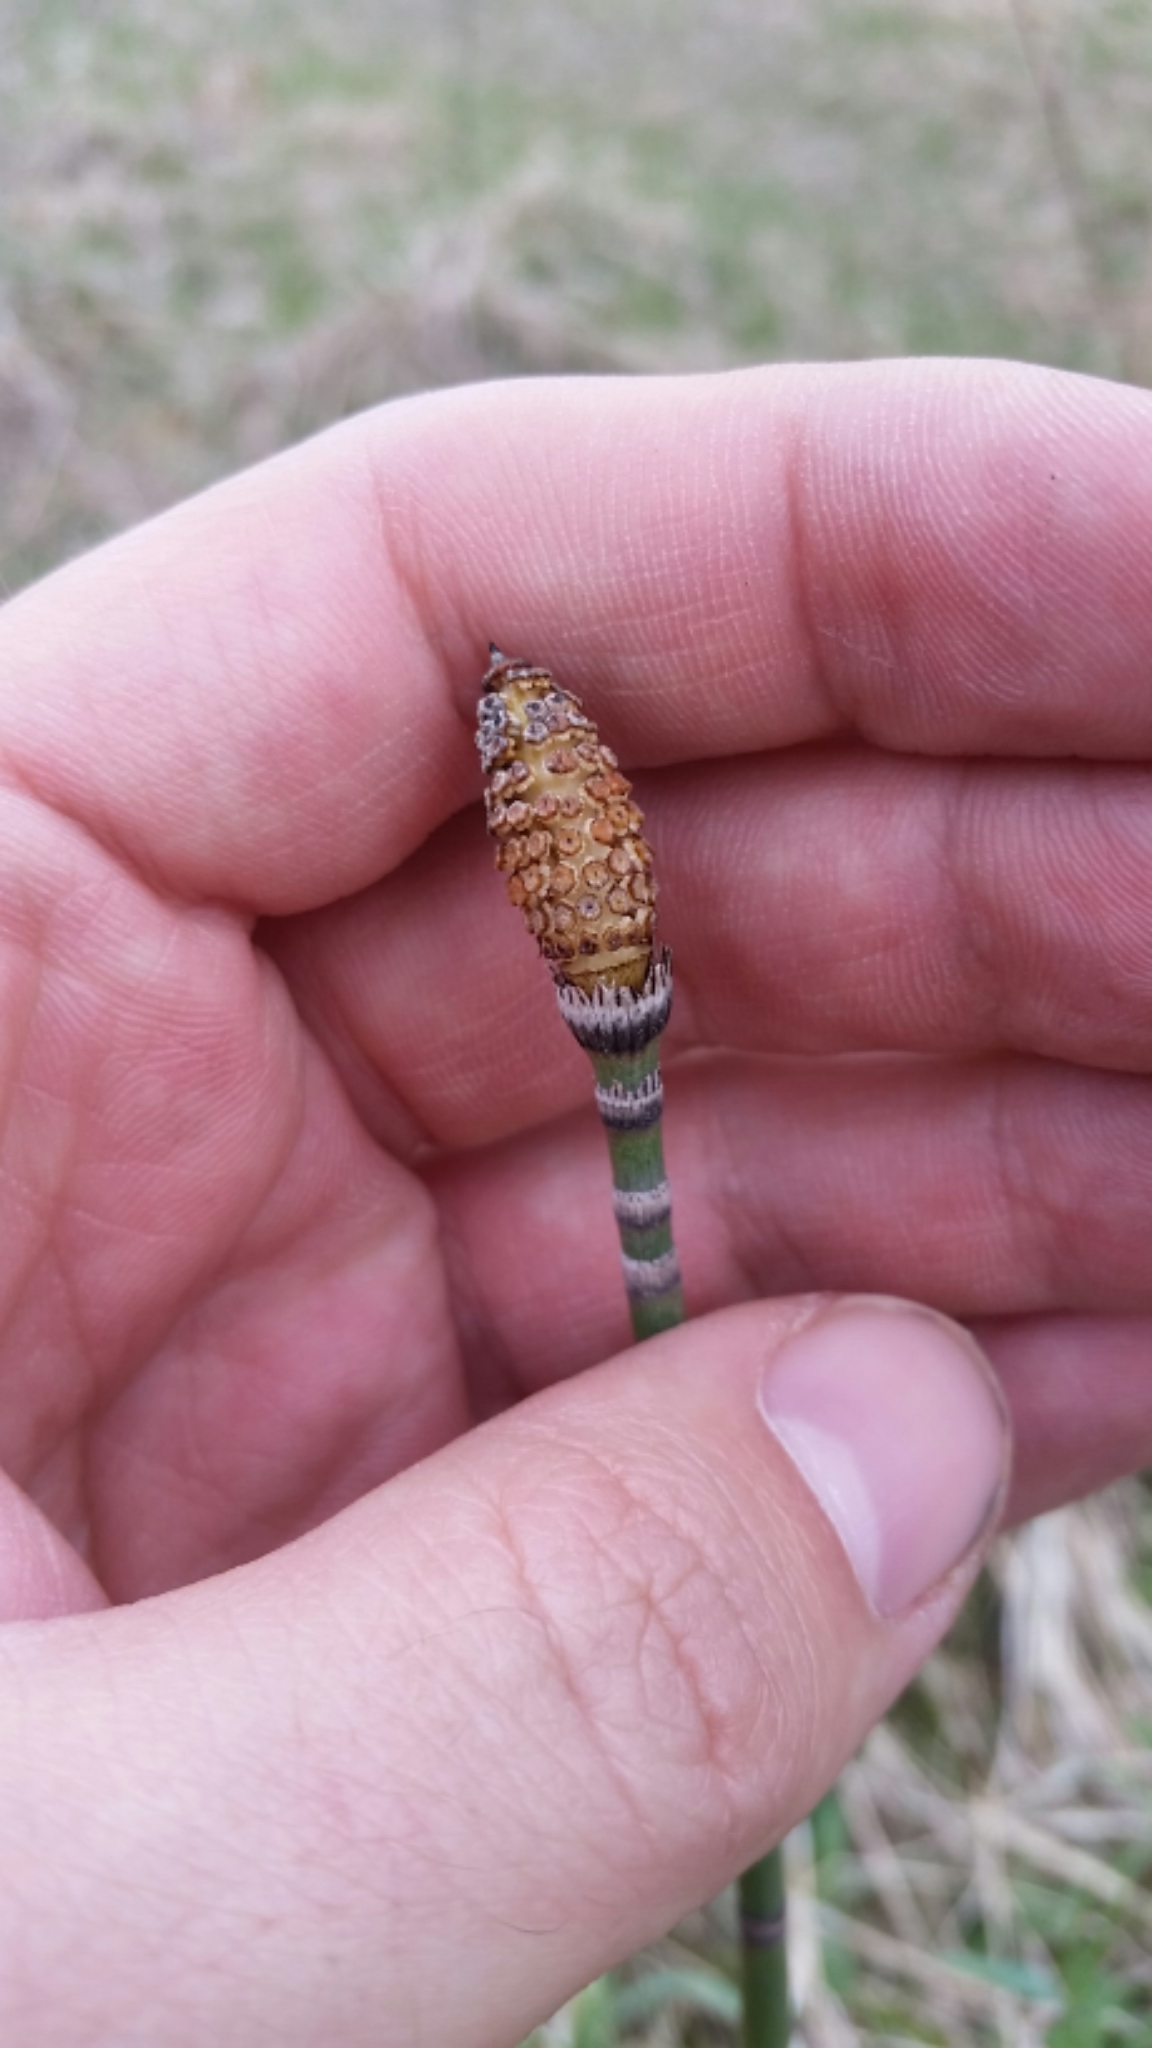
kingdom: Plantae
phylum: Tracheophyta
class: Polypodiopsida
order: Equisetales
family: Equisetaceae
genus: Equisetum
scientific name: Equisetum hyemale
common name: Rough horsetail
